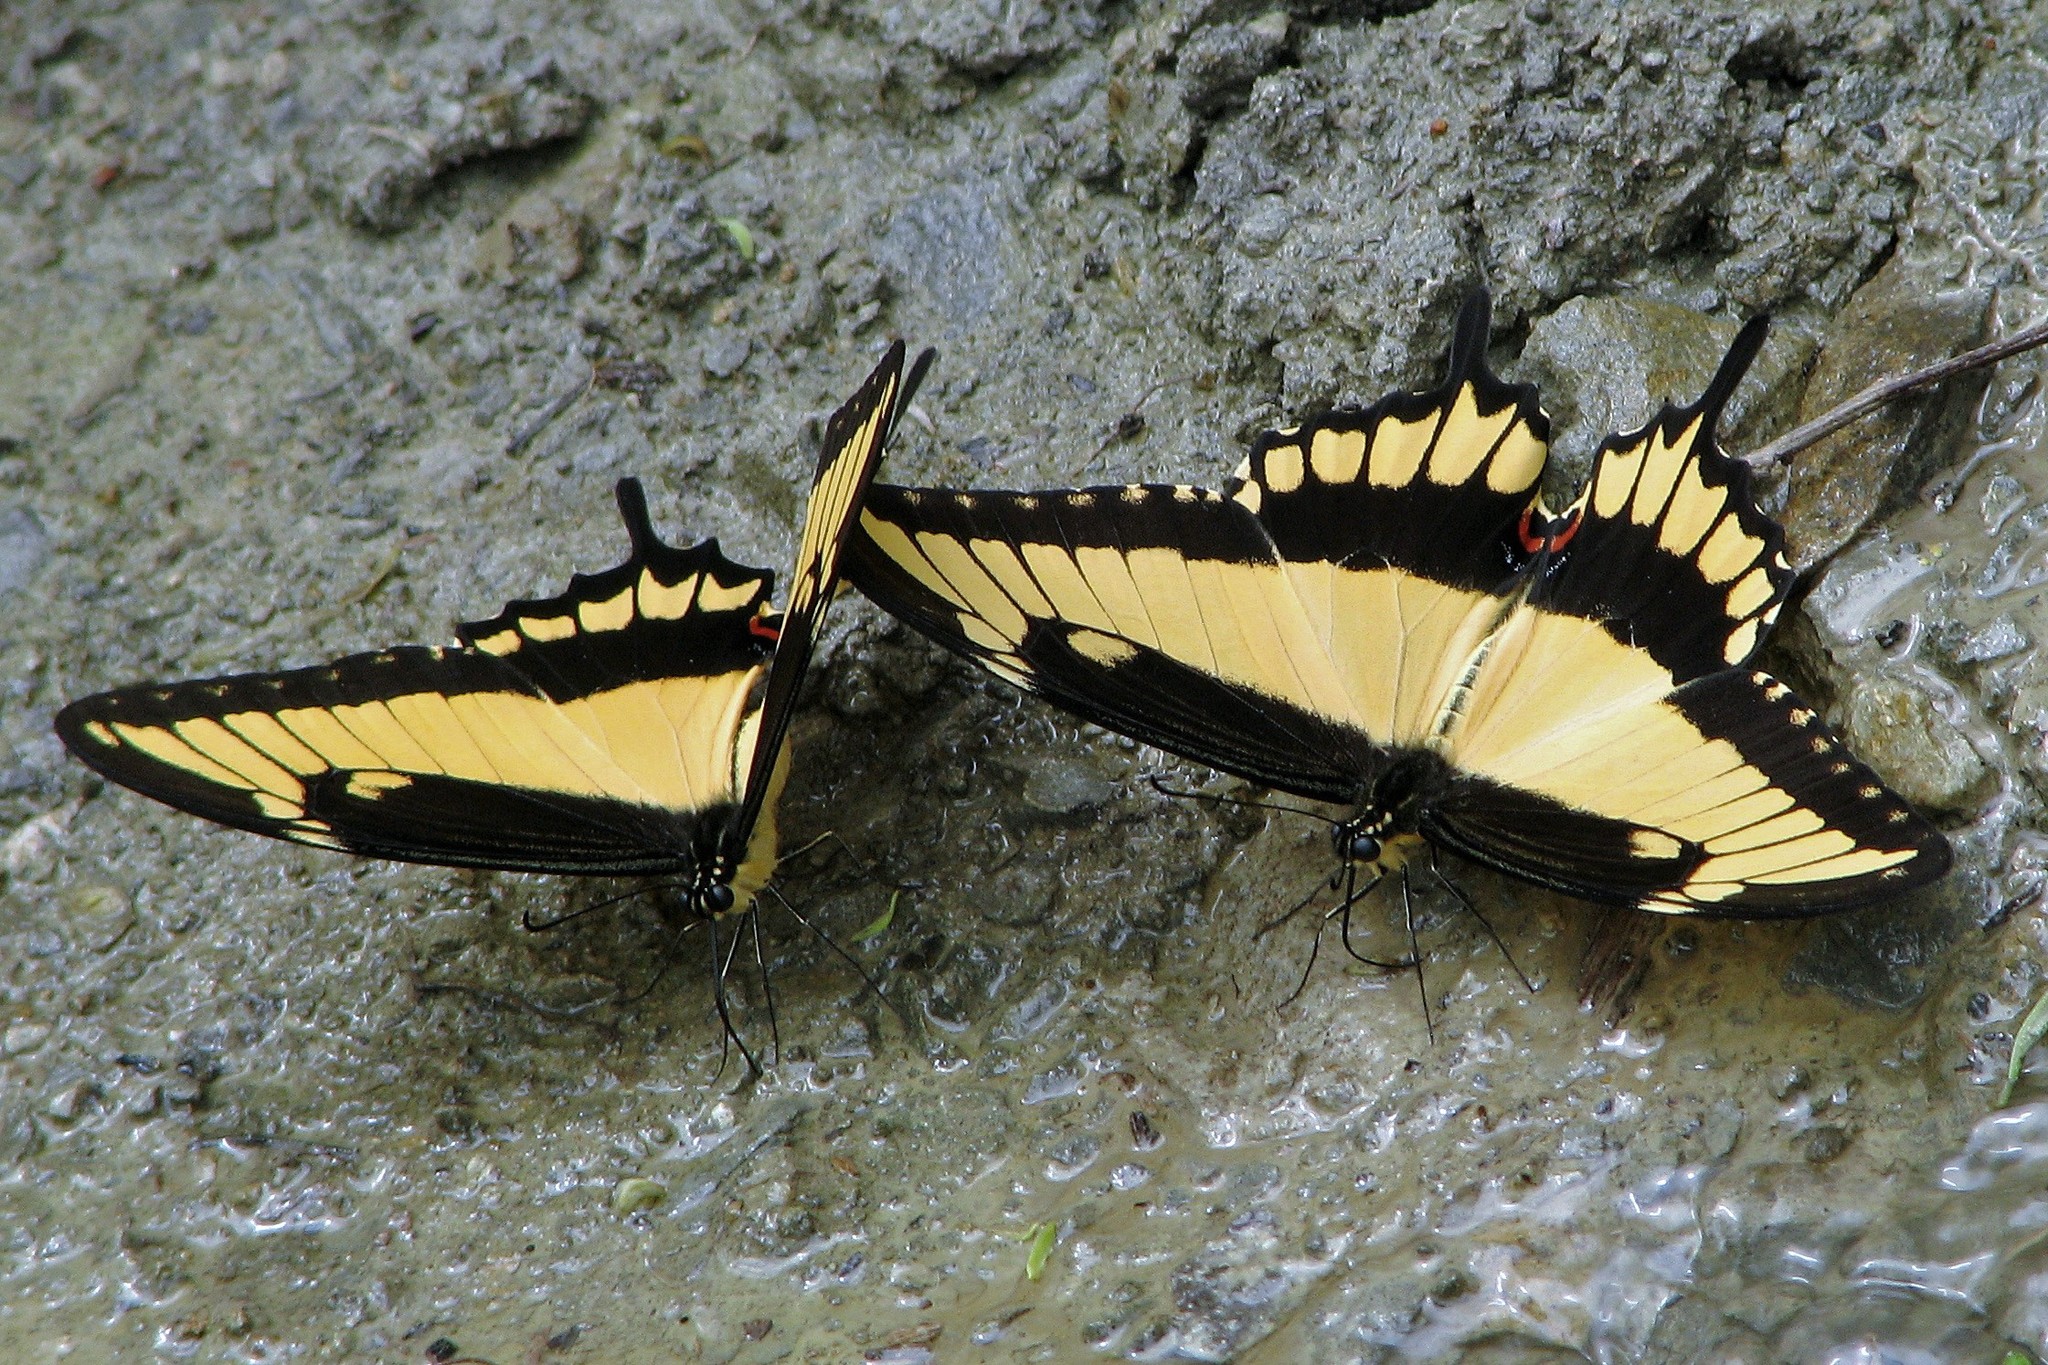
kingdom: Animalia
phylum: Arthropoda
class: Insecta
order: Lepidoptera
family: Papilionidae
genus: Papilio
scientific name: Papilio astyalus
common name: Astyalus swallowtail
